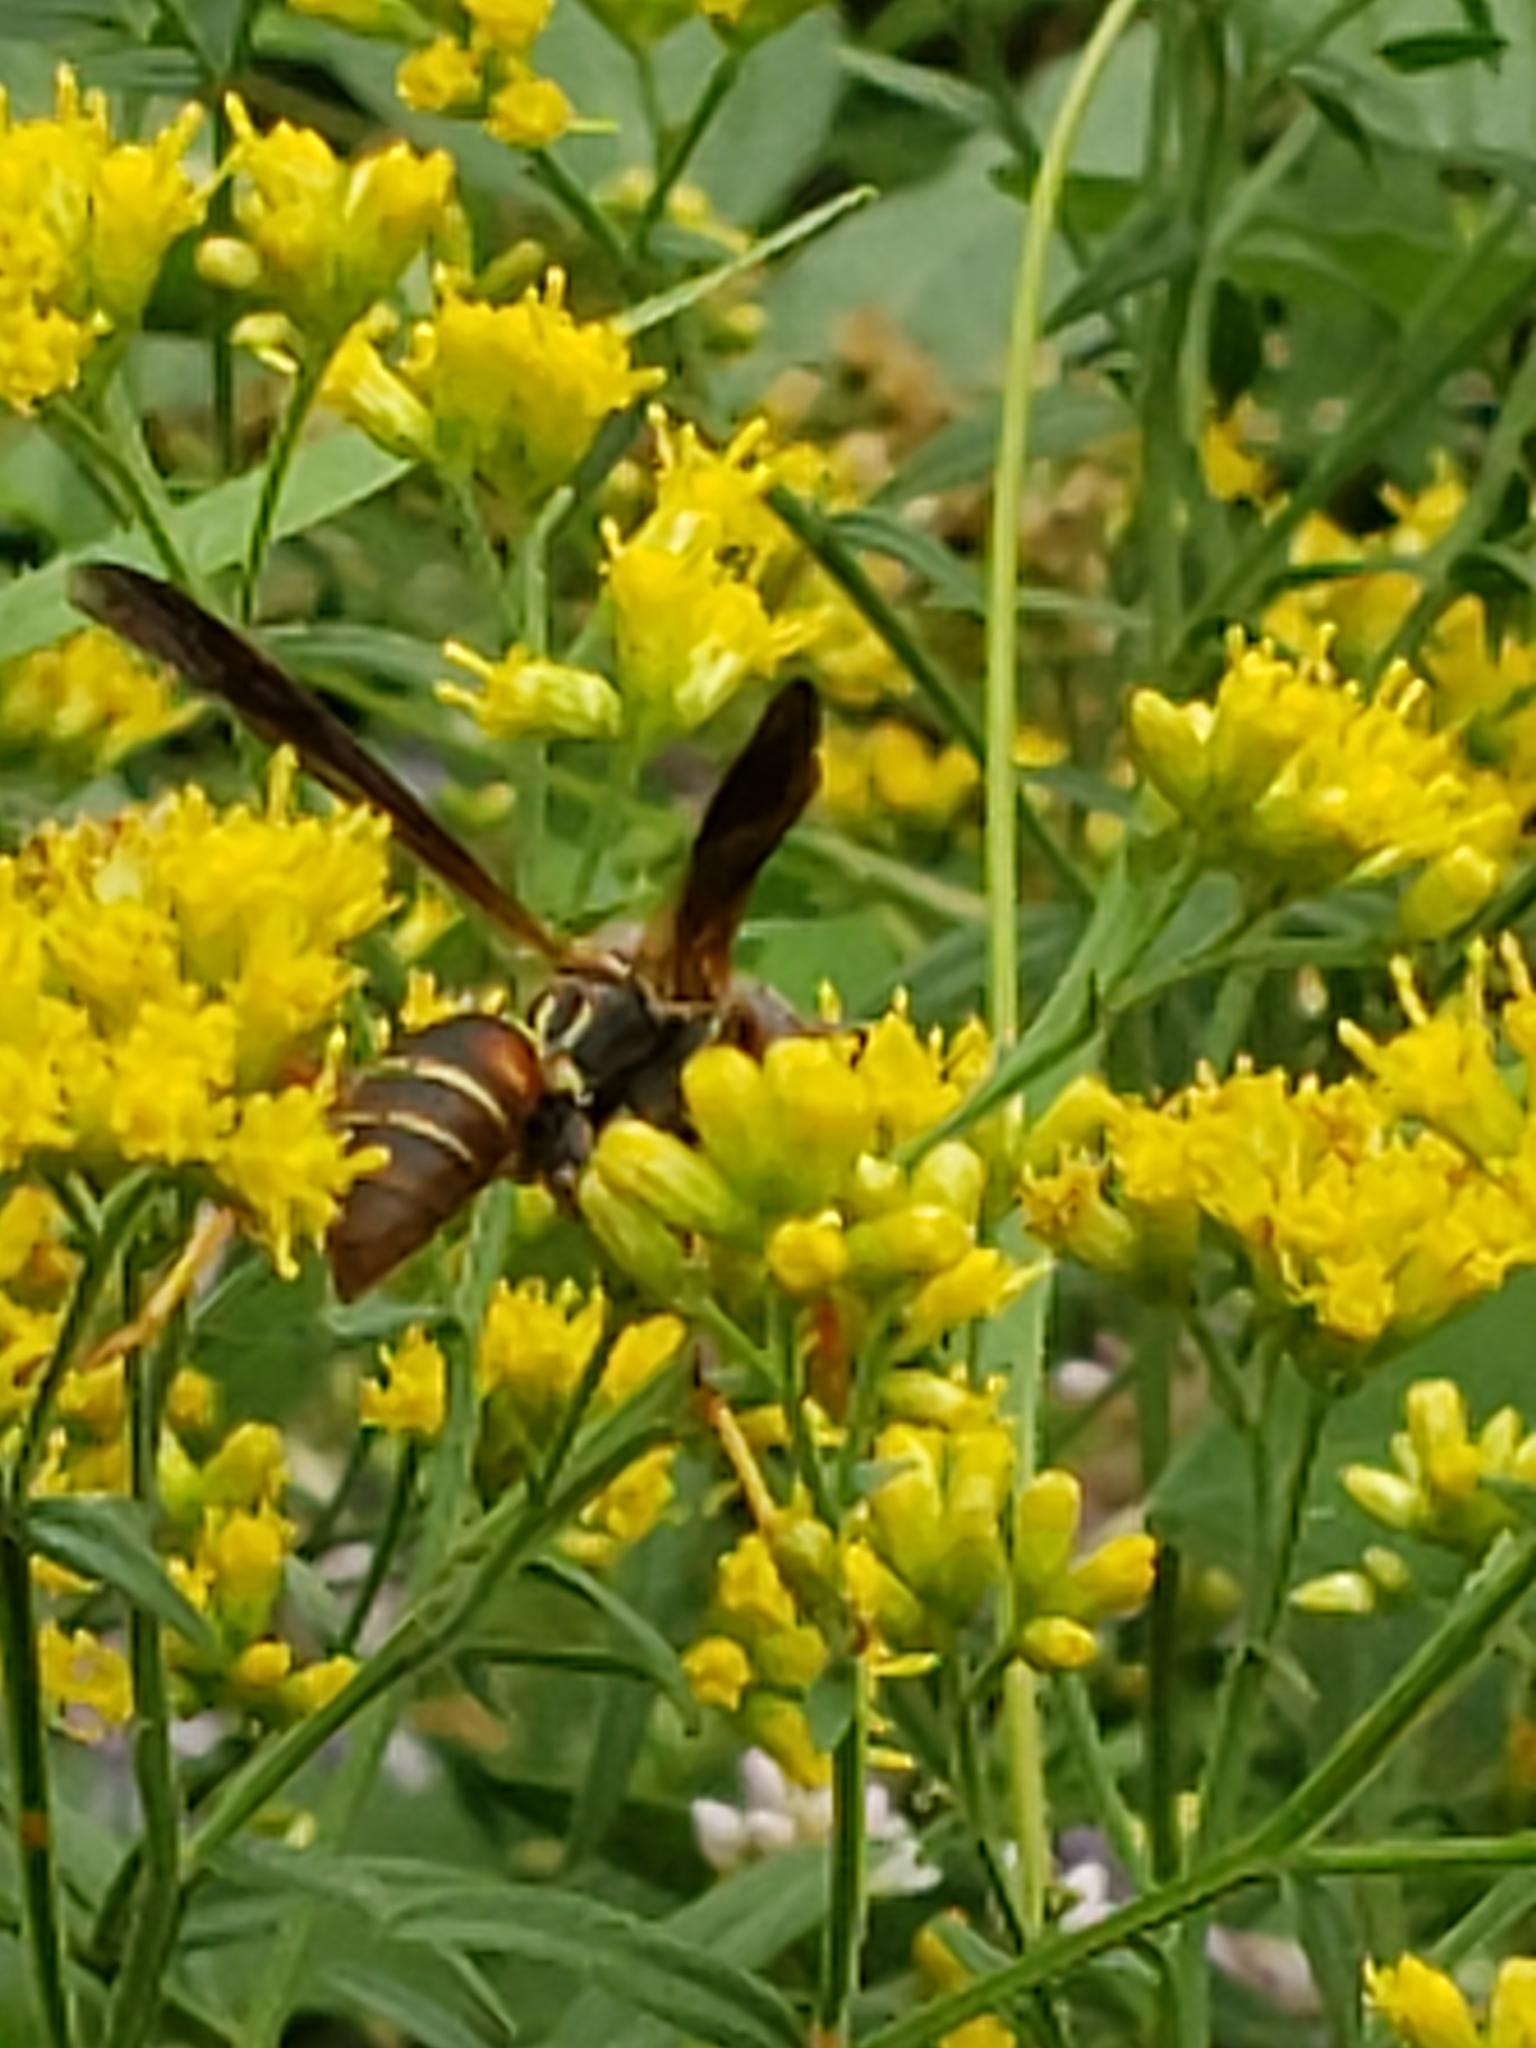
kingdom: Animalia
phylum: Arthropoda
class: Insecta
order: Hymenoptera
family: Eumenidae
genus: Polistes
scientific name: Polistes fuscatus
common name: Dark paper wasp
